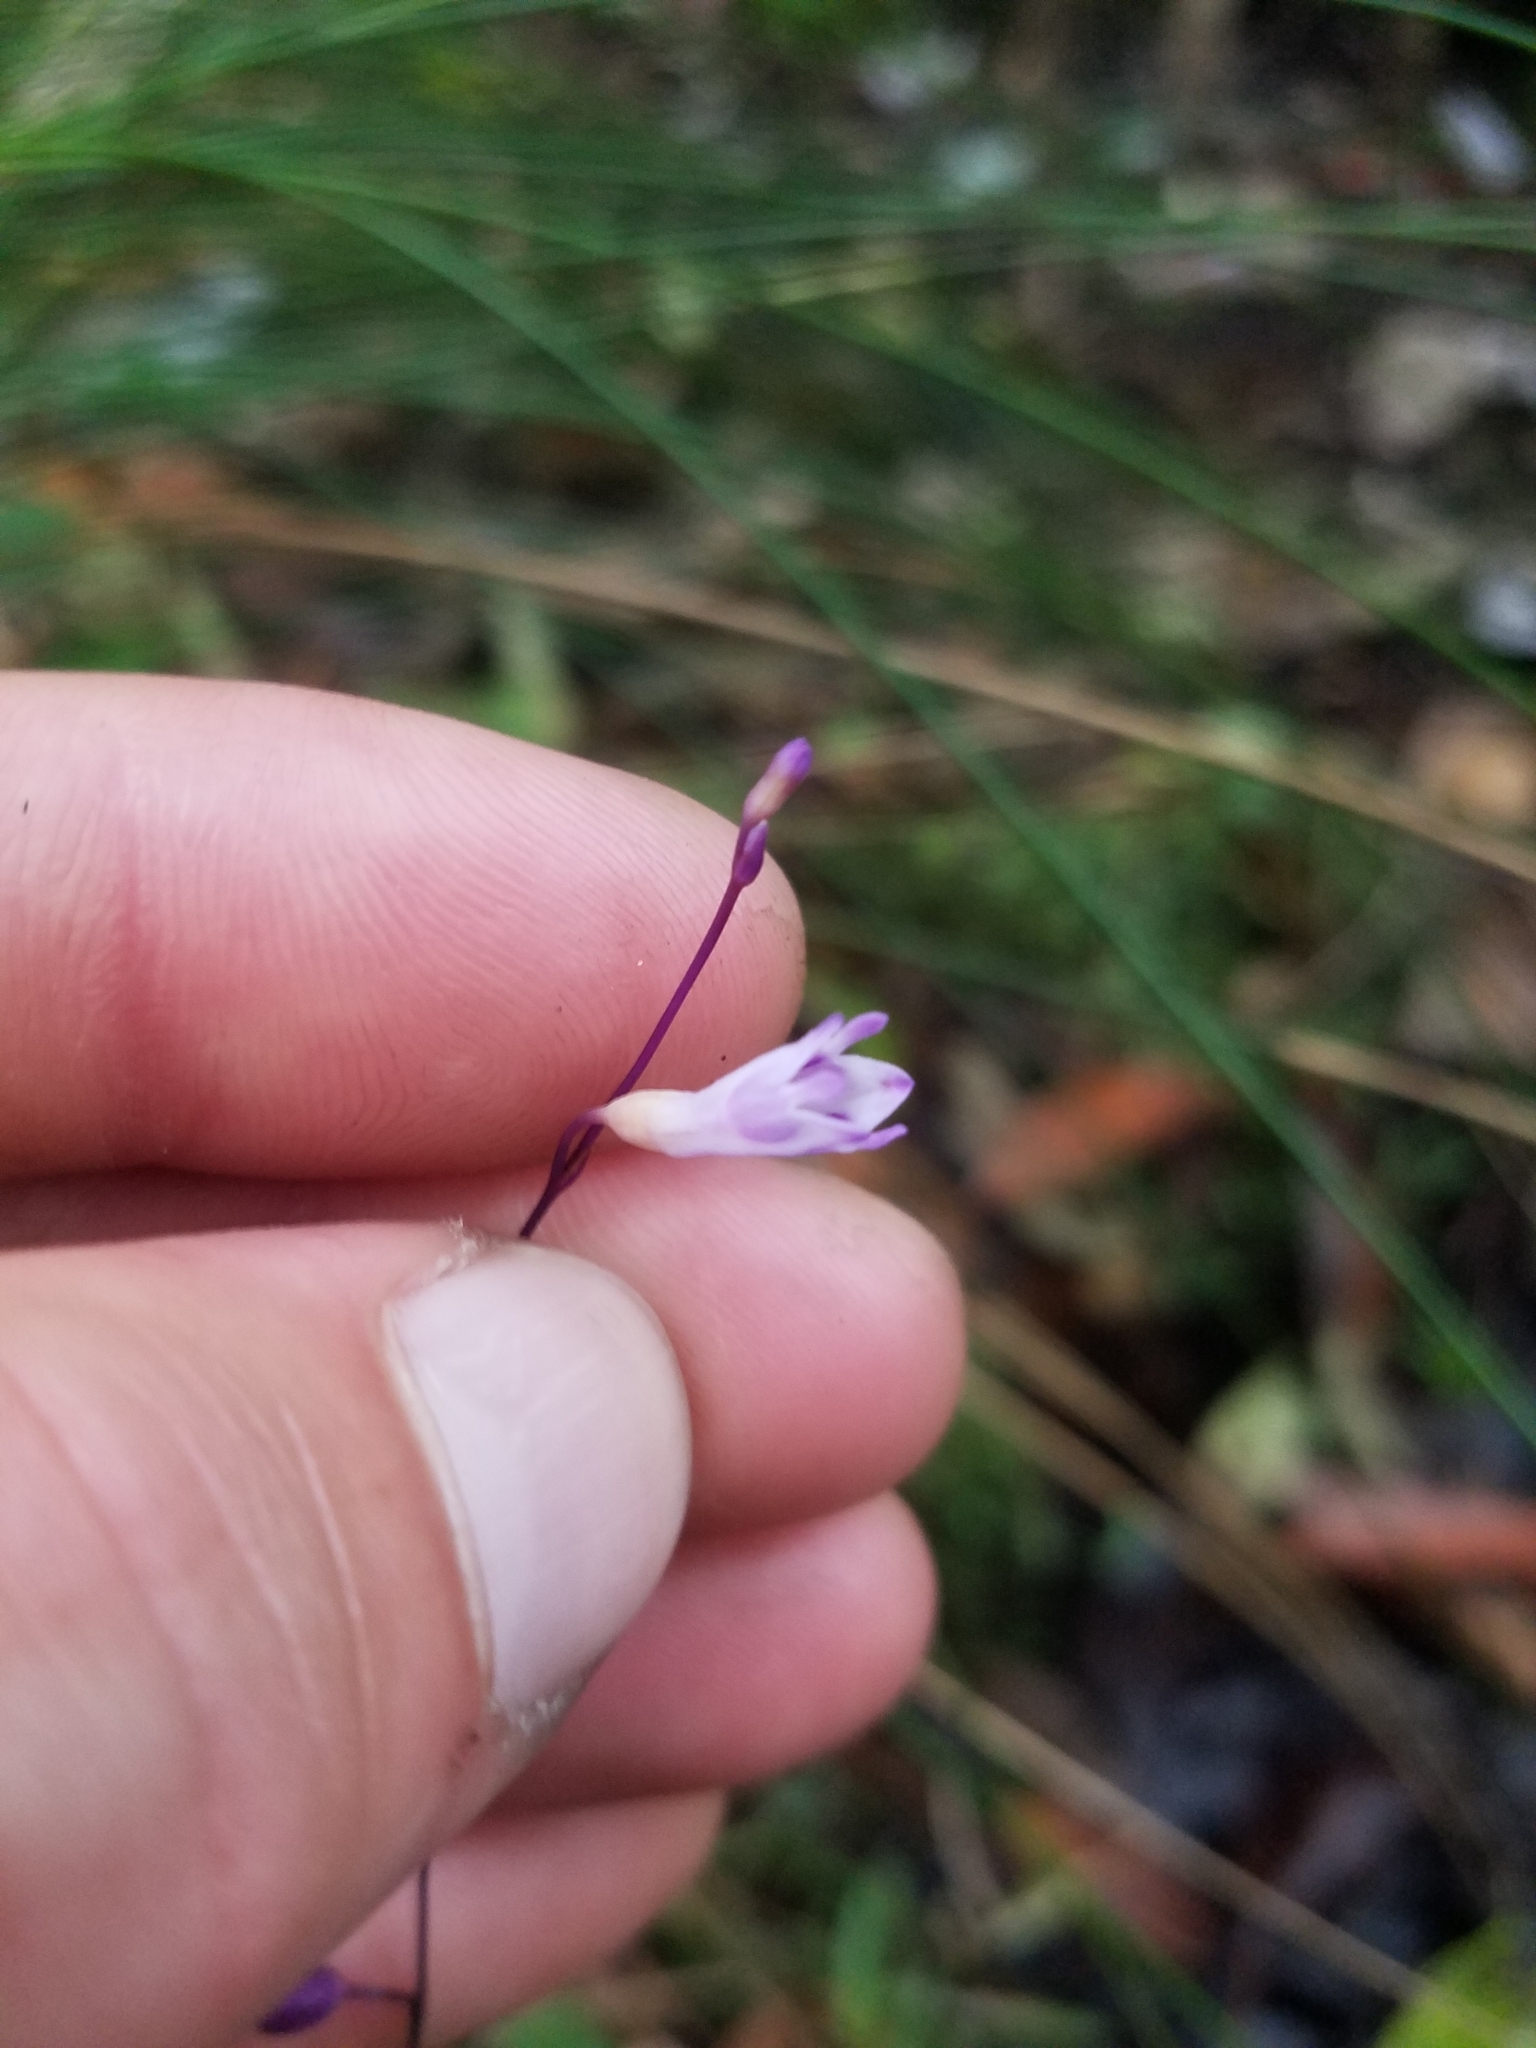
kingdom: Plantae
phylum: Tracheophyta
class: Liliopsida
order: Dioscoreales
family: Burmanniaceae
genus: Apteria
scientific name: Apteria aphylla
